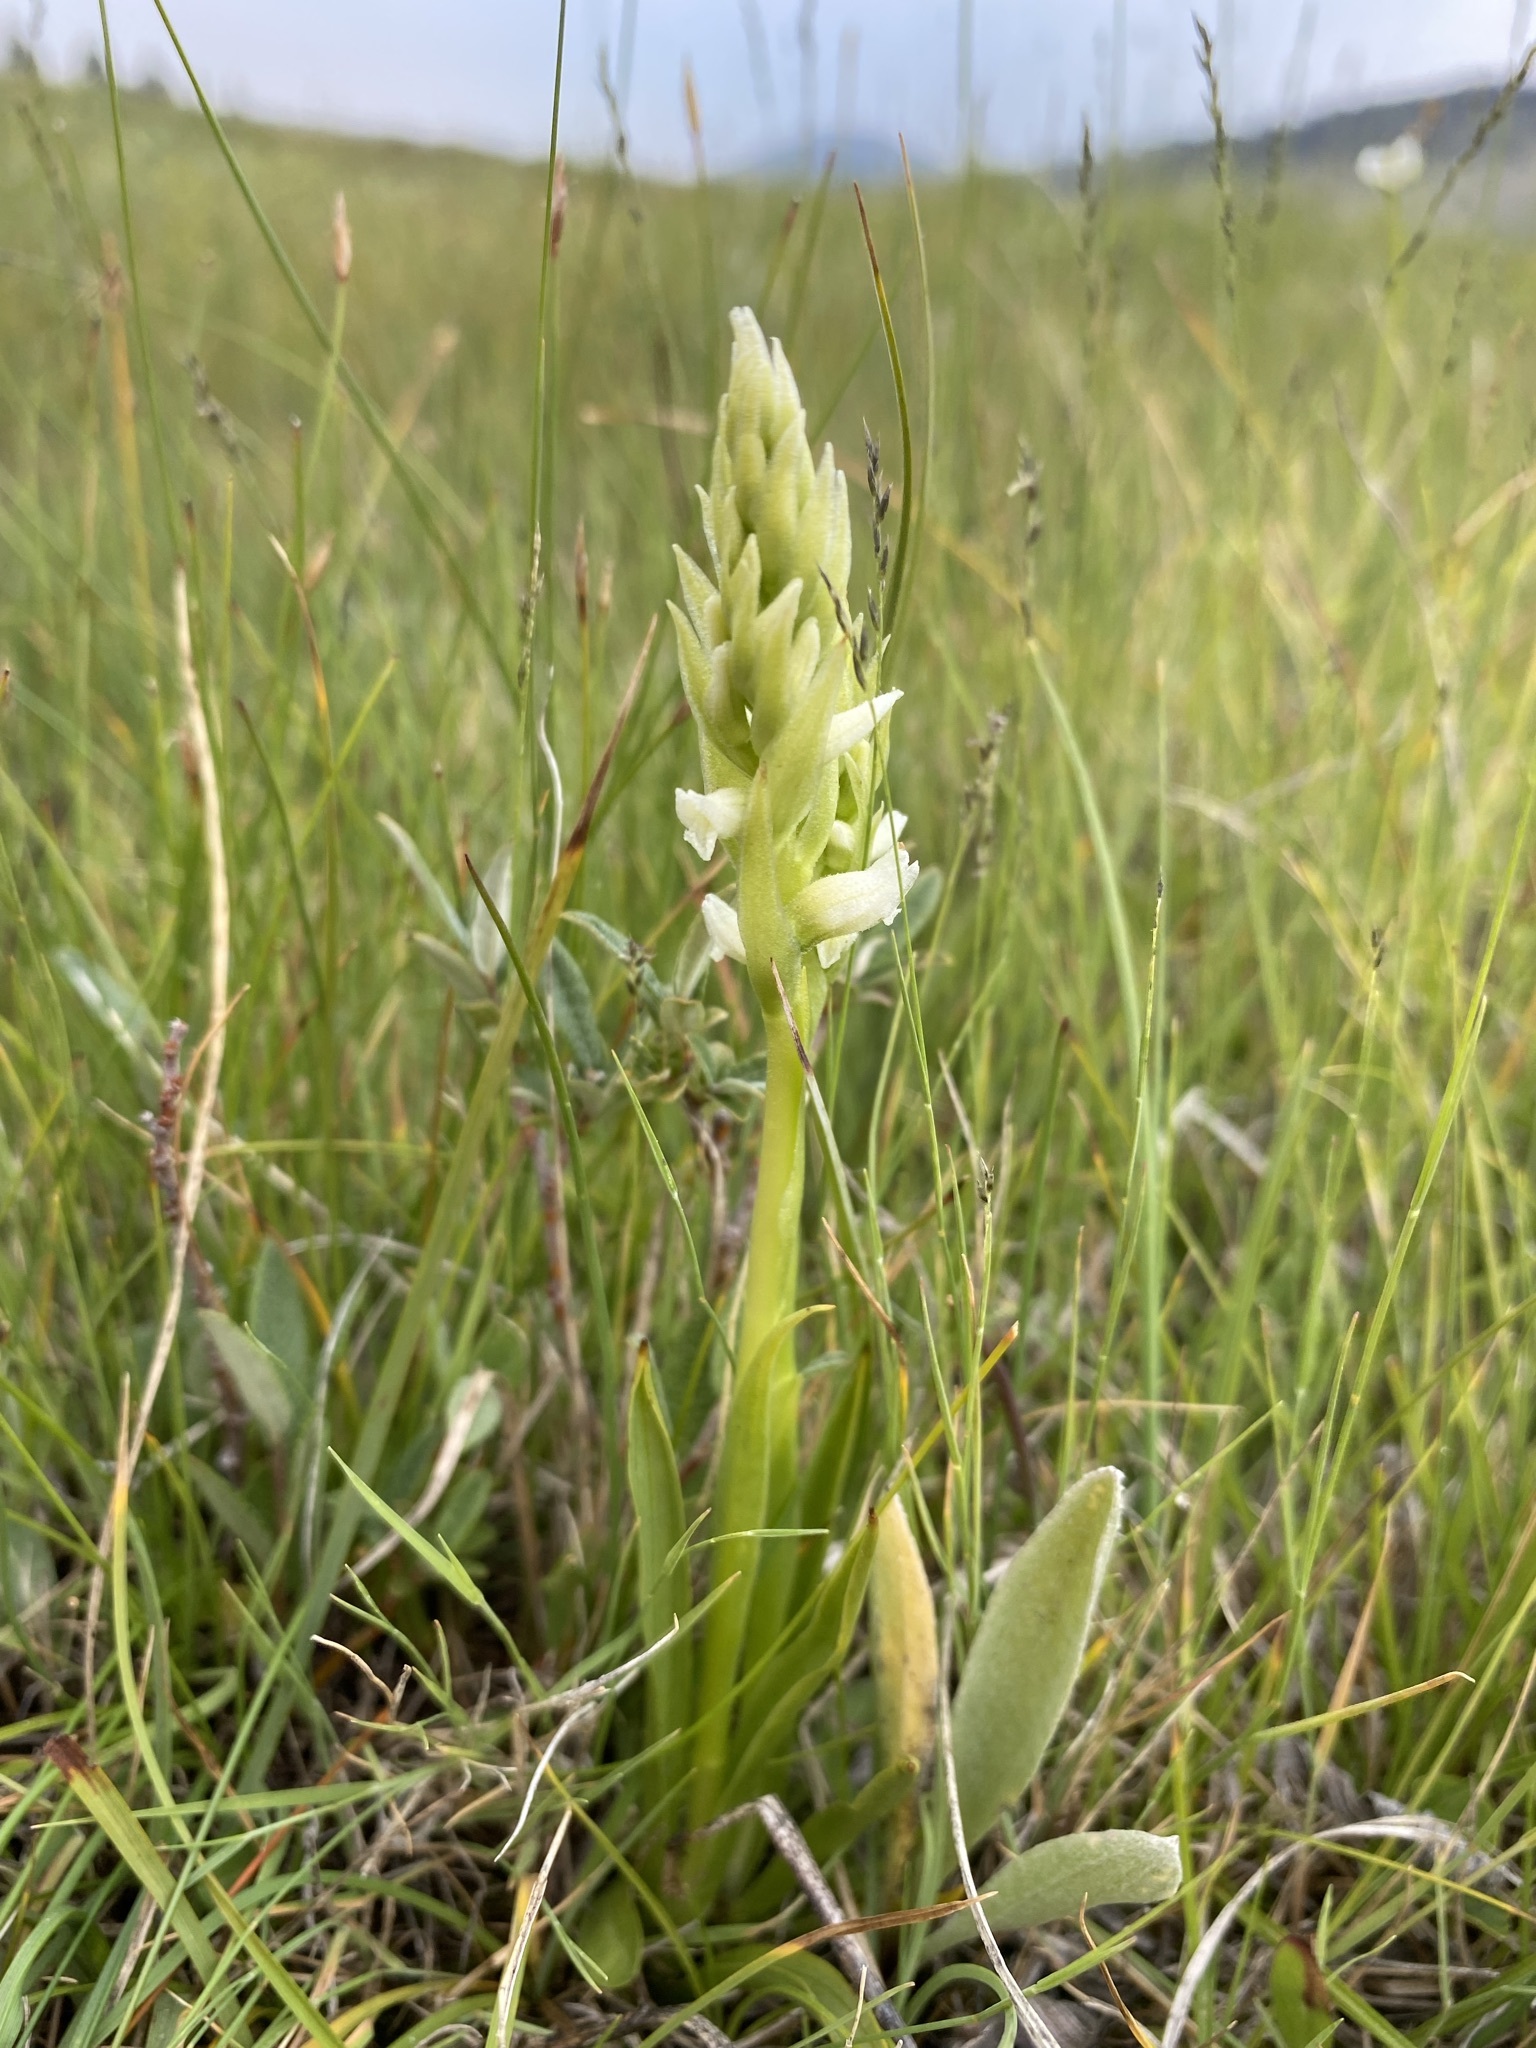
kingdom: Plantae
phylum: Tracheophyta
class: Liliopsida
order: Asparagales
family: Orchidaceae
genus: Spiranthes
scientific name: Spiranthes romanzoffiana
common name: Irish lady's-tresses
